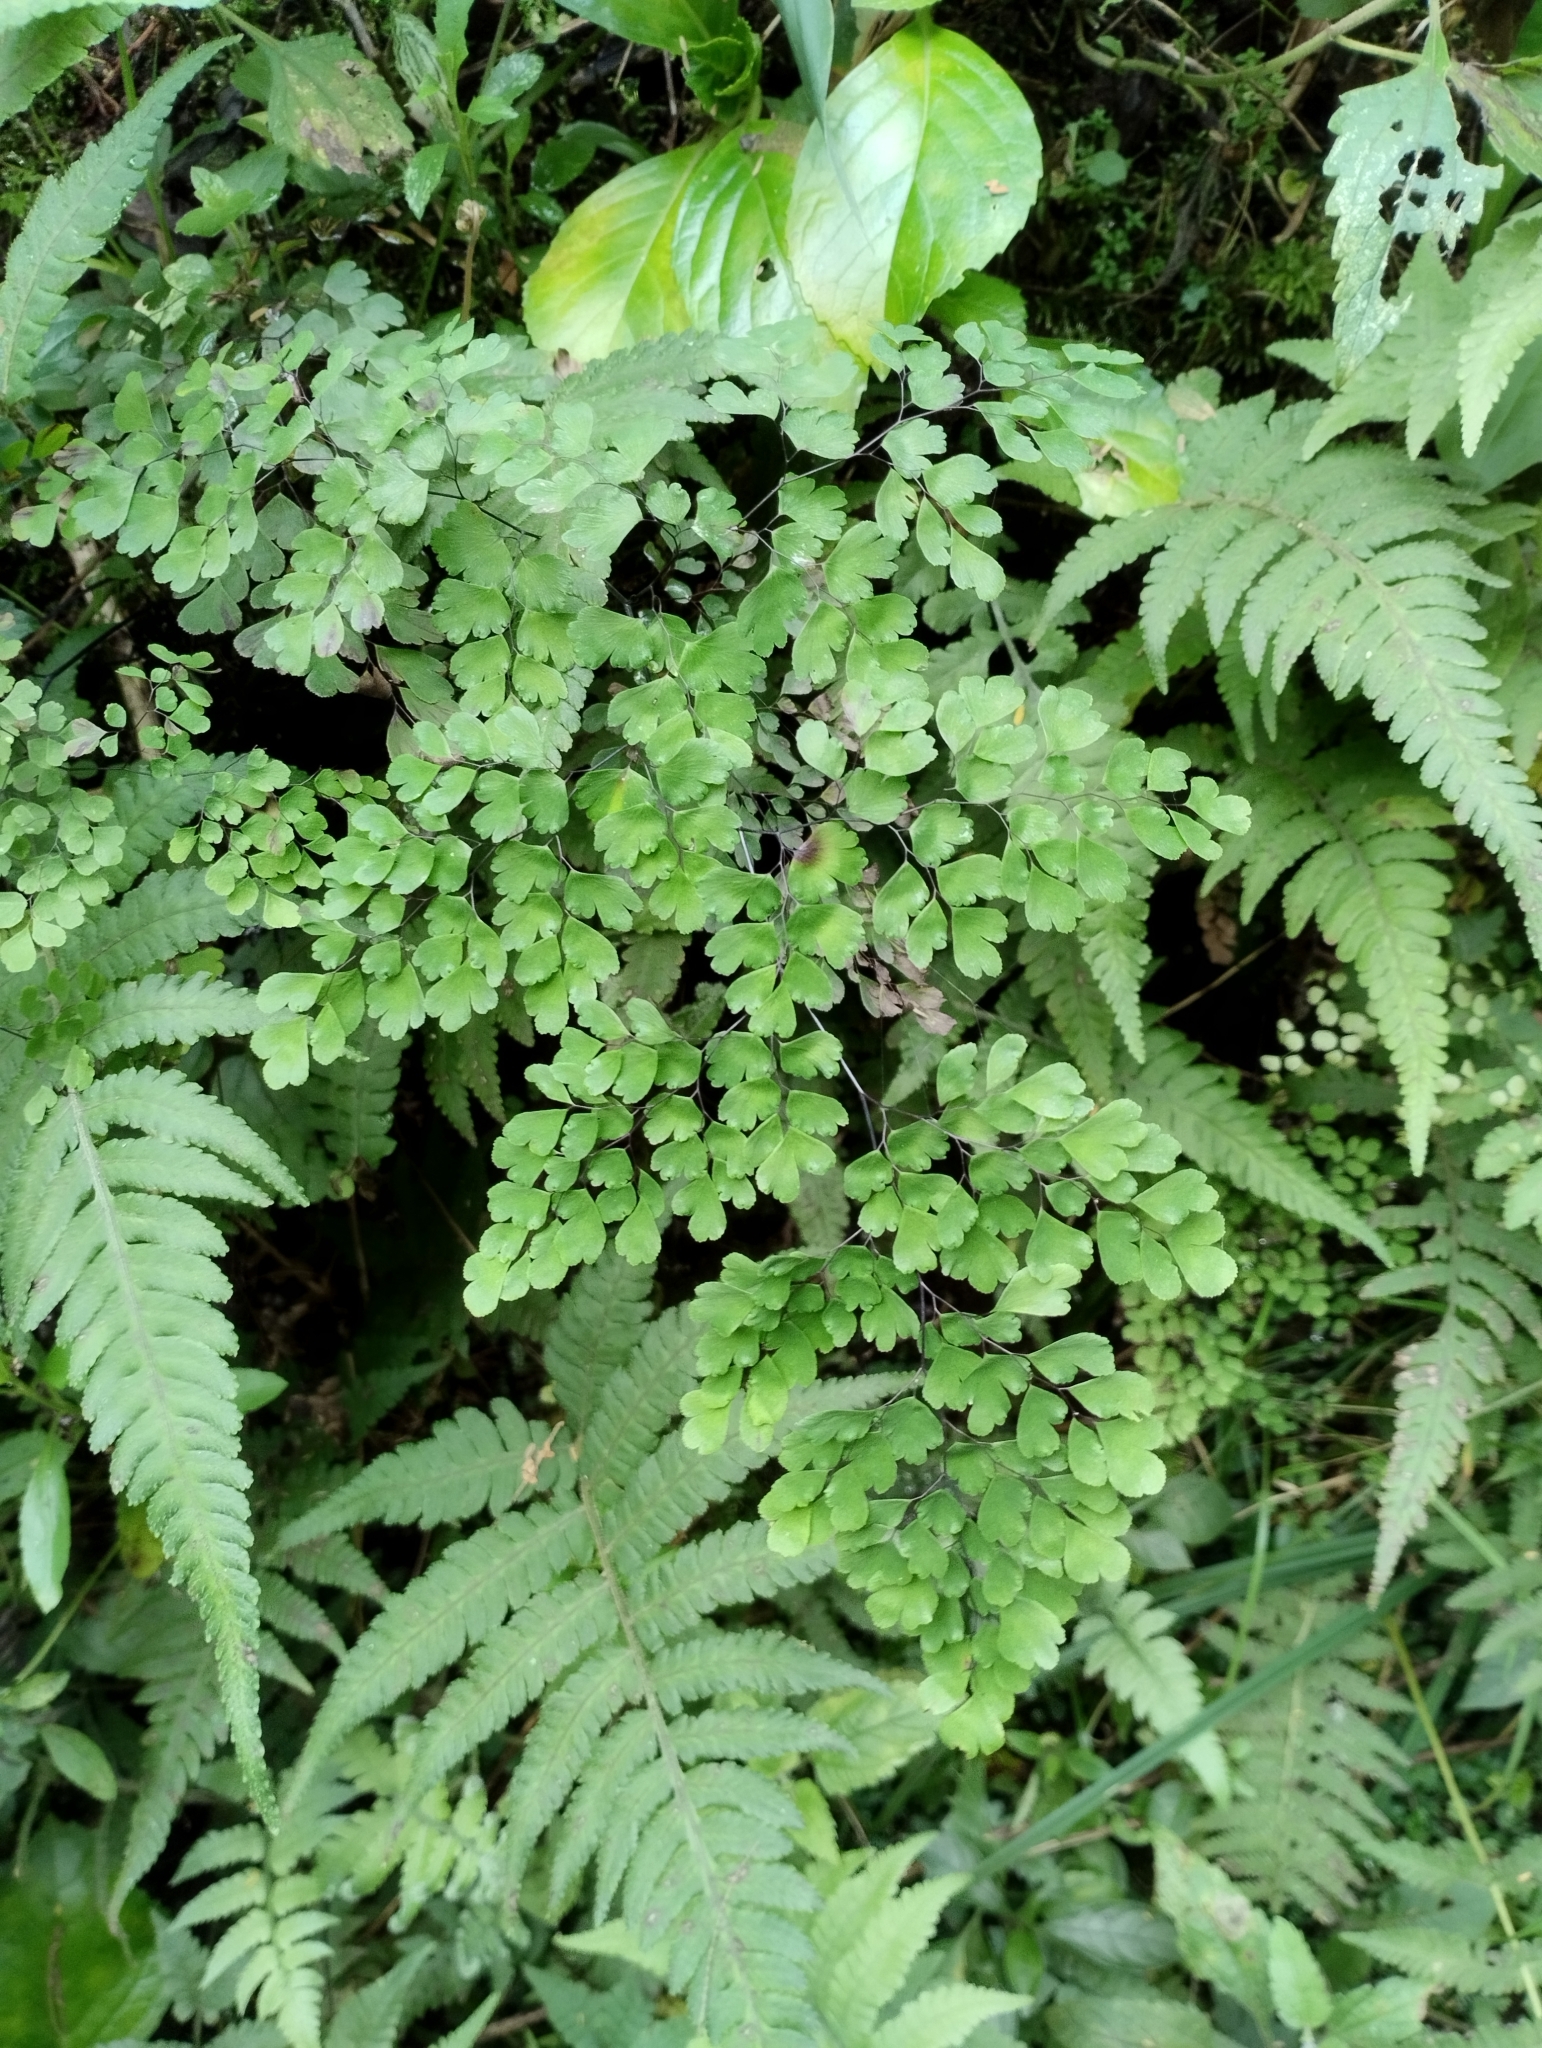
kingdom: Plantae
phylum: Tracheophyta
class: Polypodiopsida
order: Polypodiales
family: Pteridaceae
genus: Adiantum
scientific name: Adiantum raddianum
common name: Delta maidenhair fern
